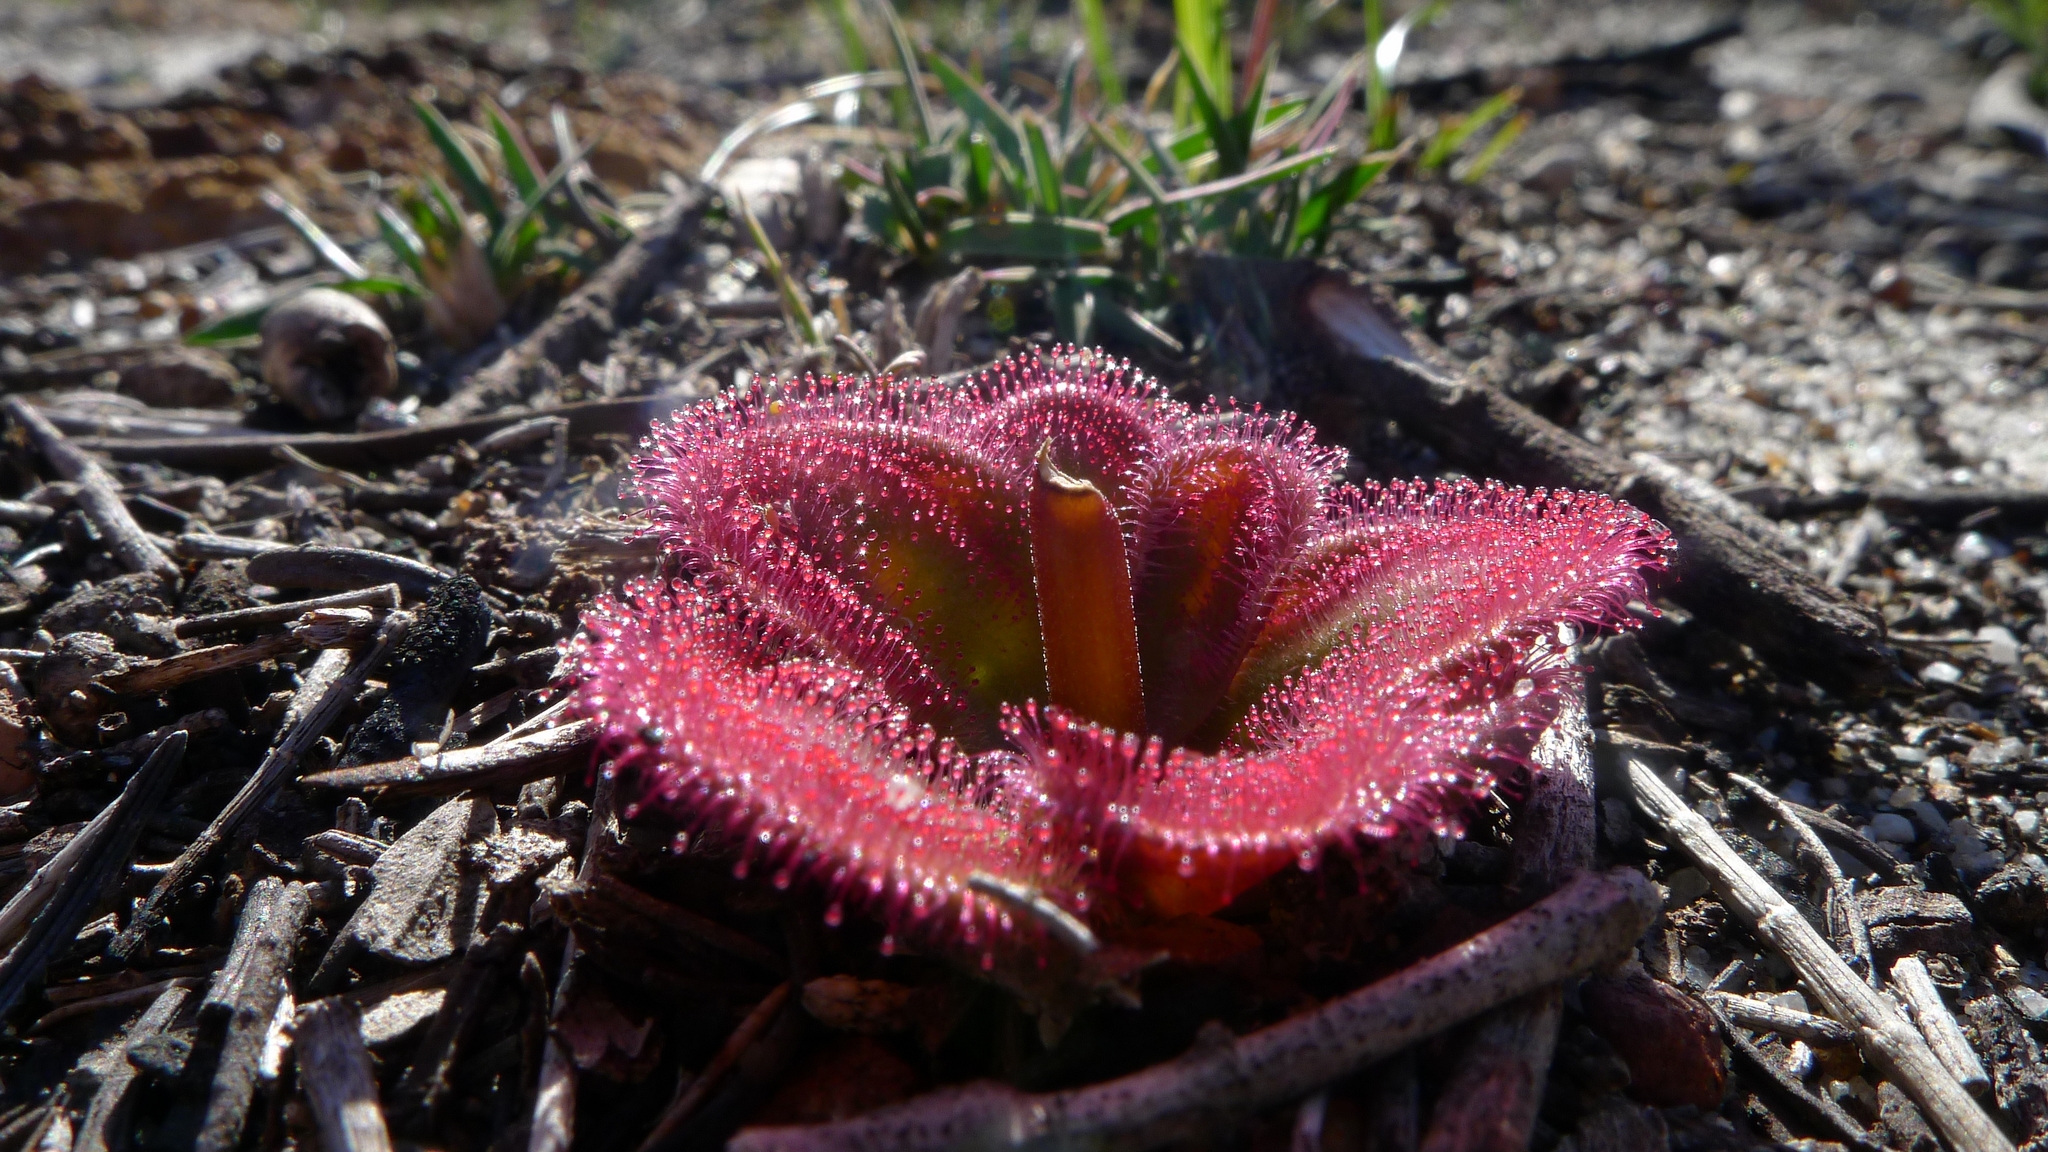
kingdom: Plantae
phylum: Tracheophyta
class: Magnoliopsida
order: Caryophyllales
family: Droseraceae
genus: Drosera
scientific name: Drosera erythrorhiza
